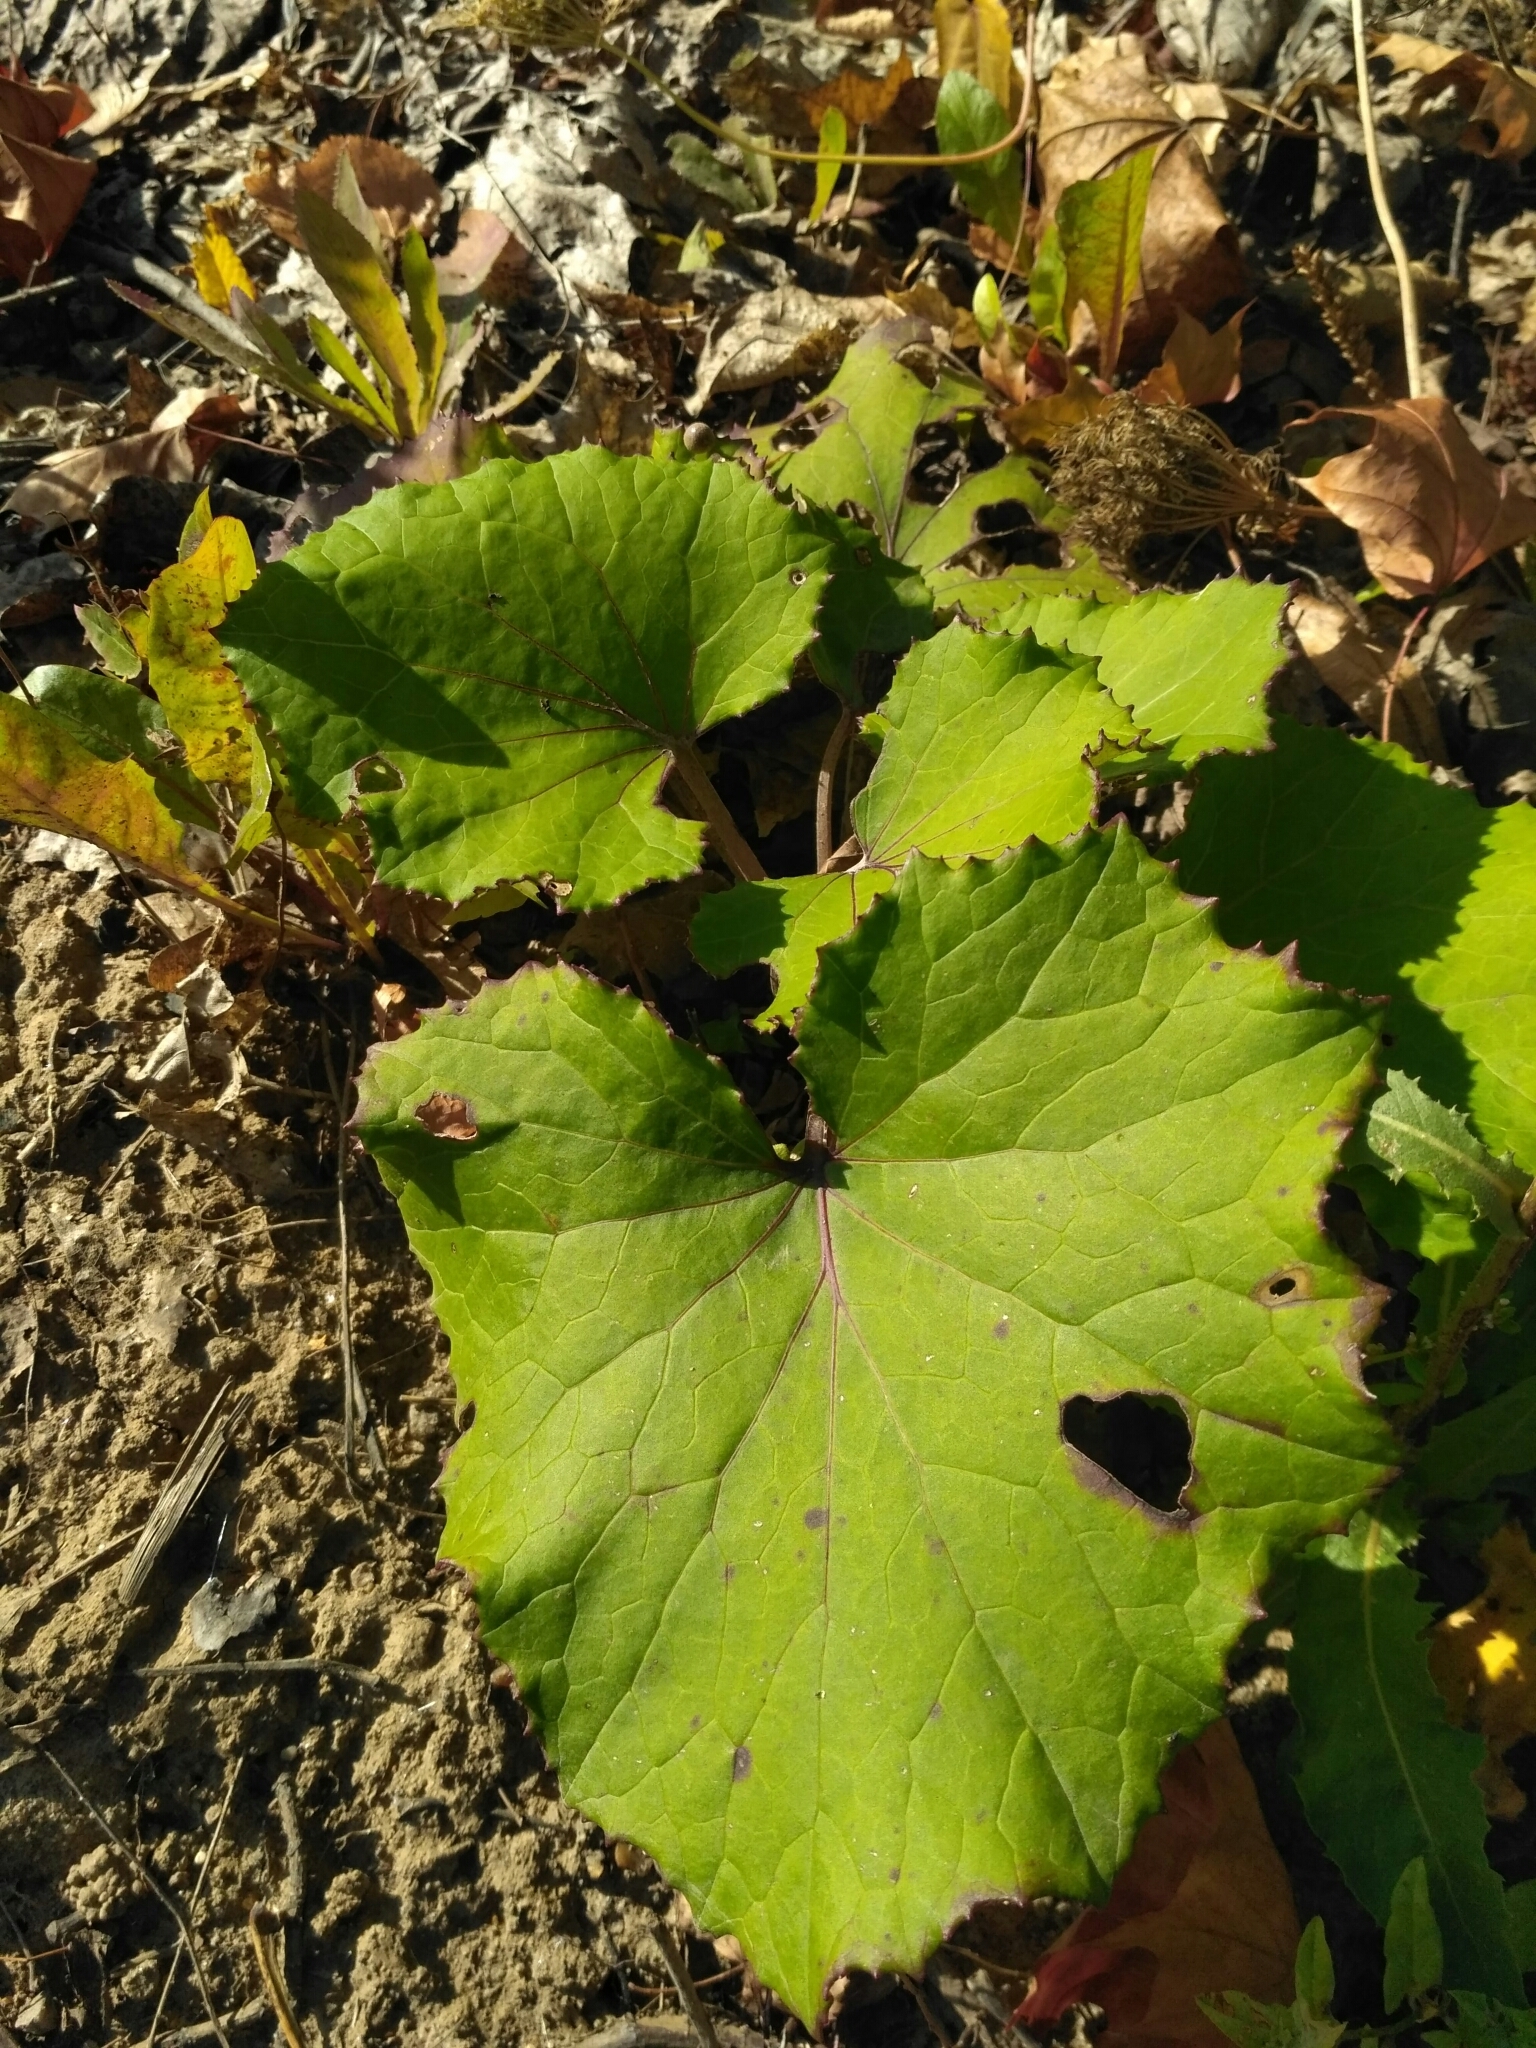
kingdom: Plantae
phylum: Tracheophyta
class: Magnoliopsida
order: Asterales
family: Asteraceae
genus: Tussilago
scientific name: Tussilago farfara
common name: Coltsfoot
